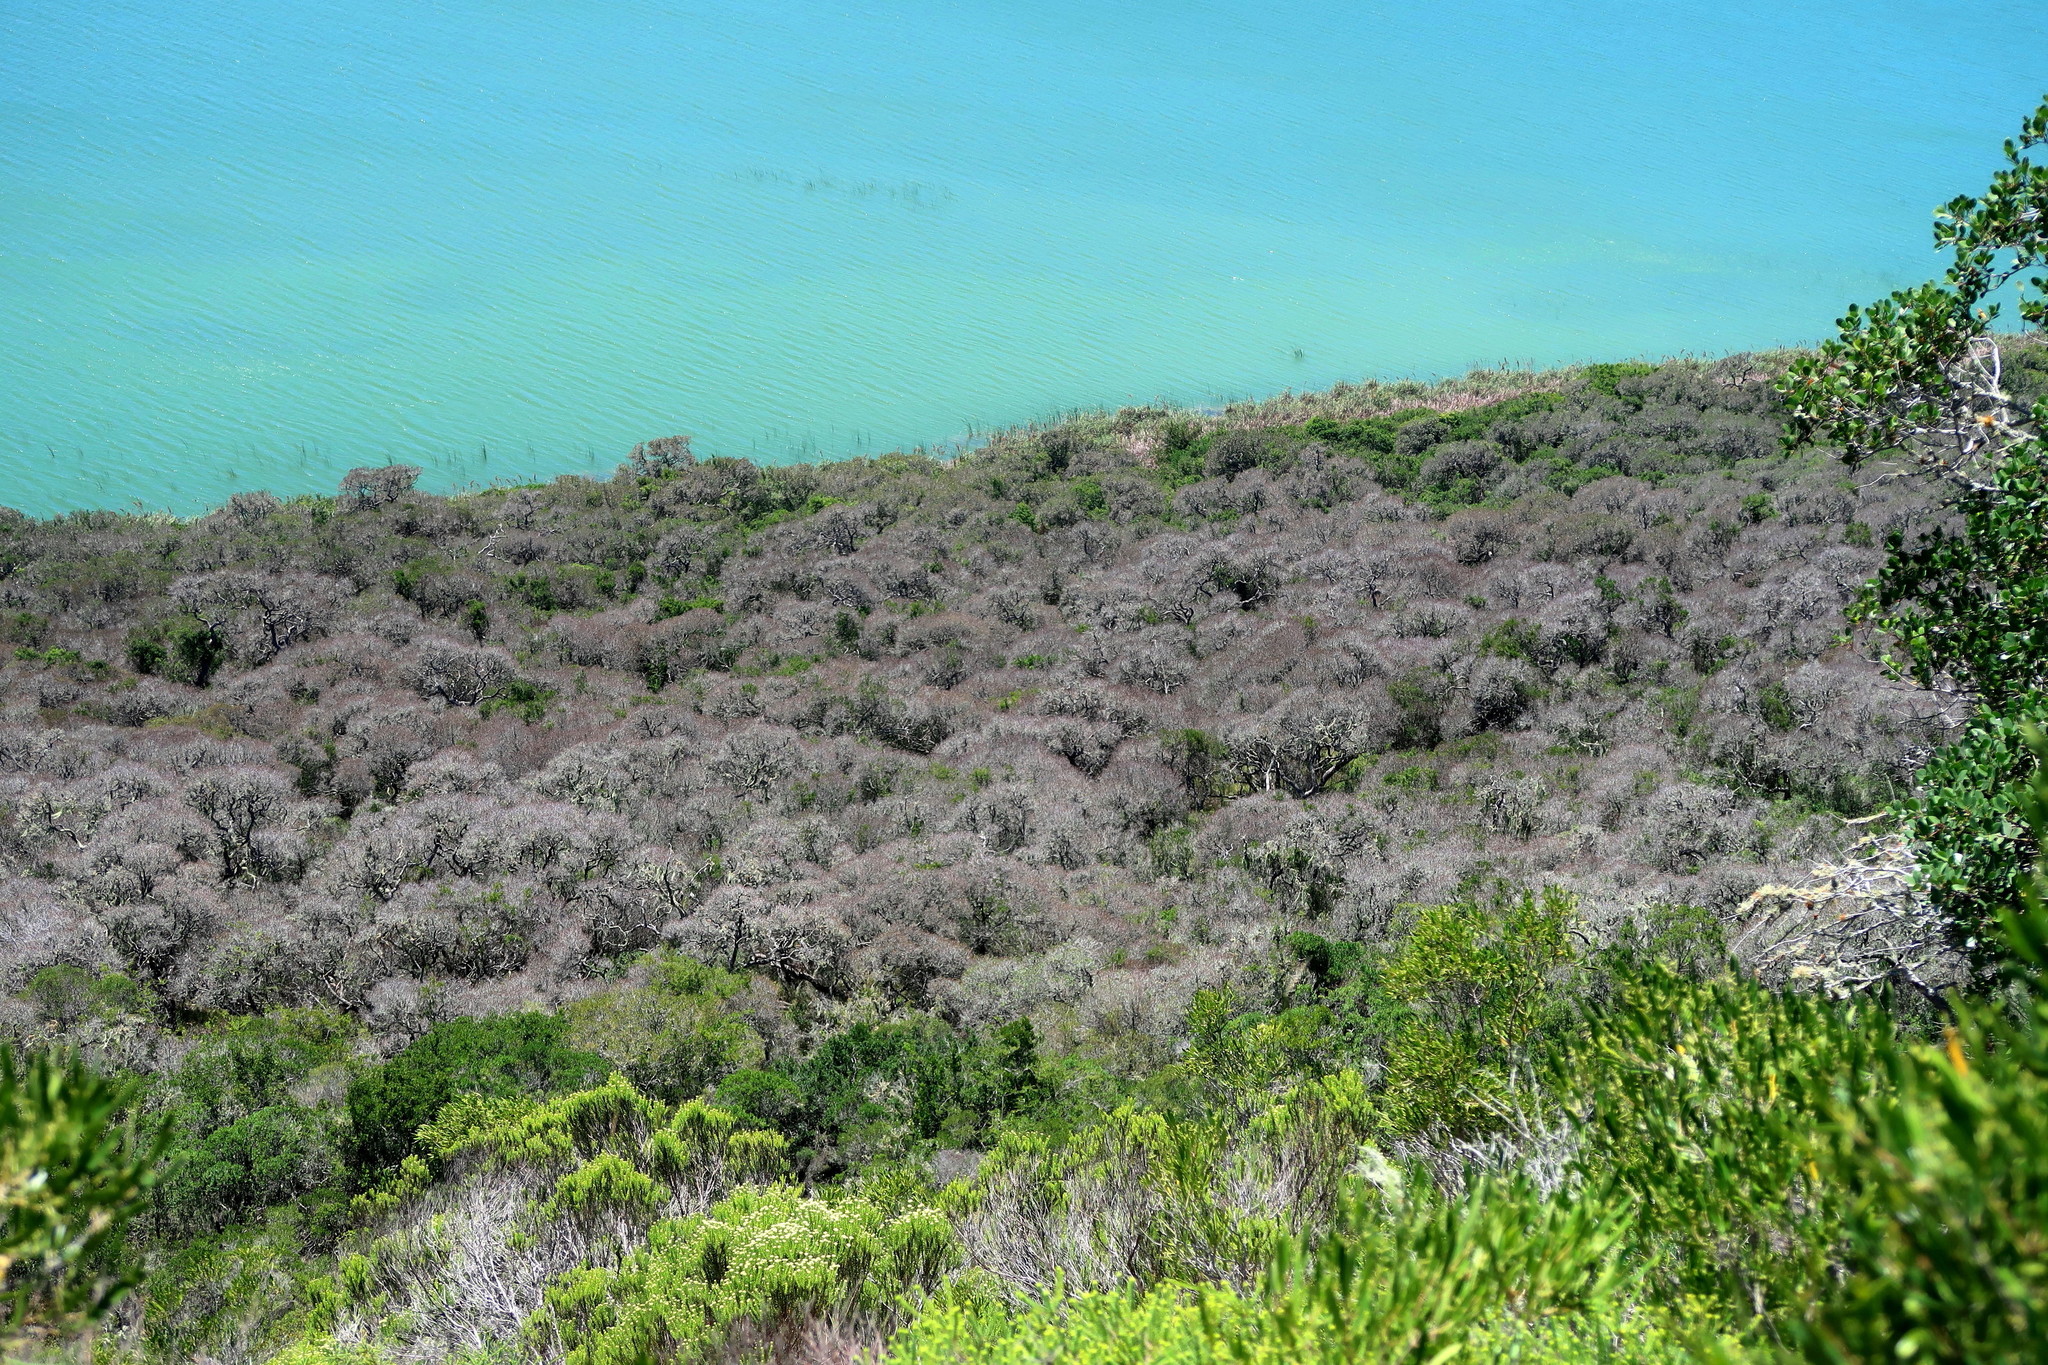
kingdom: Plantae
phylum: Tracheophyta
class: Magnoliopsida
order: Ericales
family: Sapotaceae
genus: Sideroxylon
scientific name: Sideroxylon inerme
